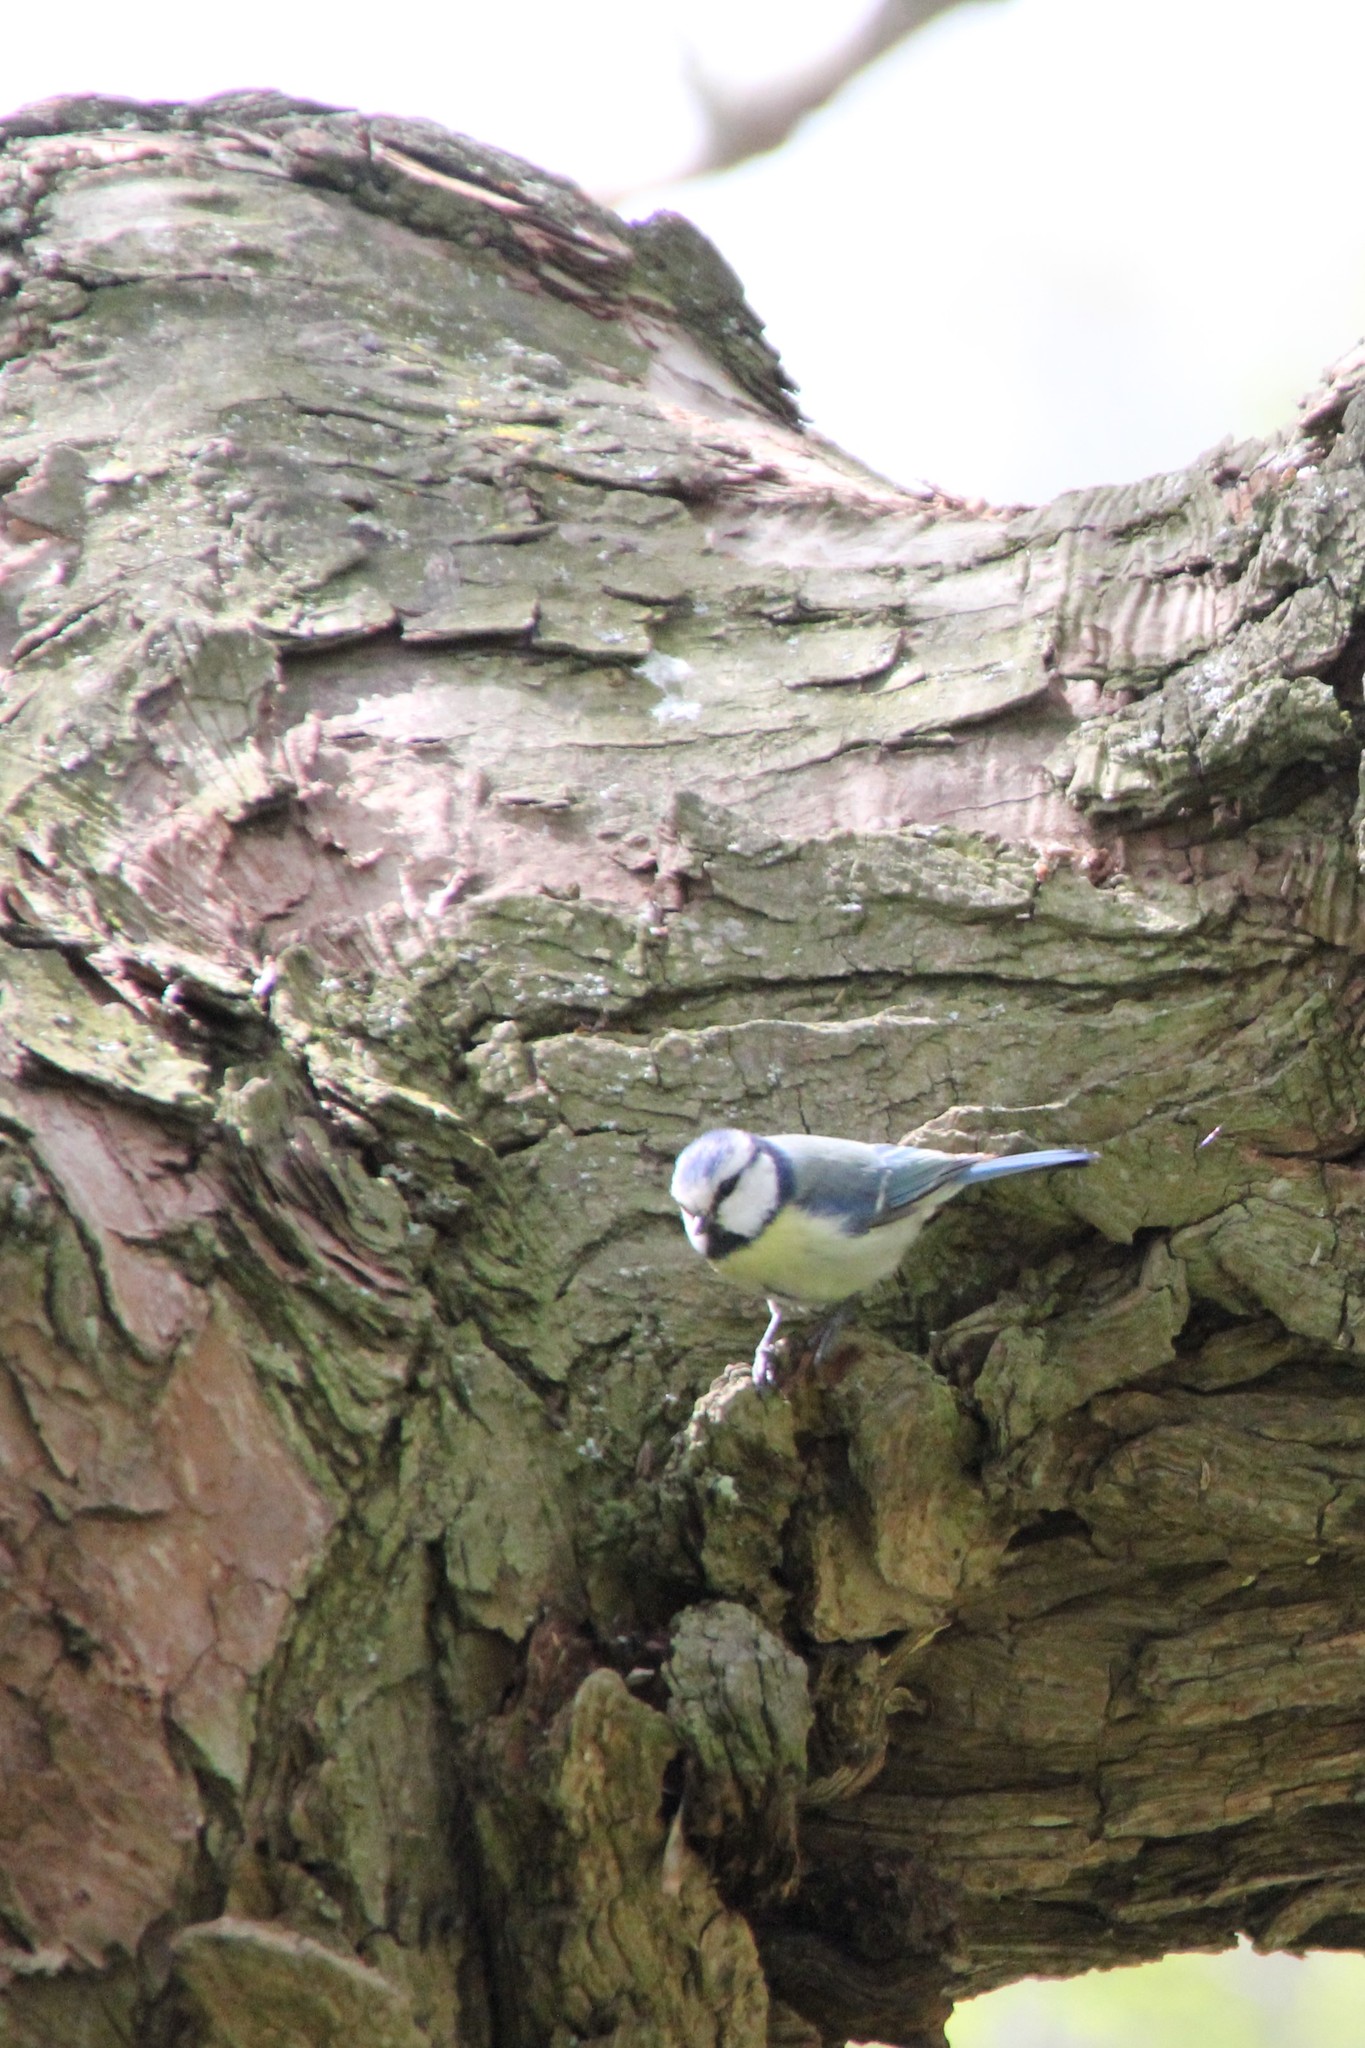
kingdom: Animalia
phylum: Chordata
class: Aves
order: Passeriformes
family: Paridae
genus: Cyanistes
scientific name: Cyanistes caeruleus
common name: Eurasian blue tit
